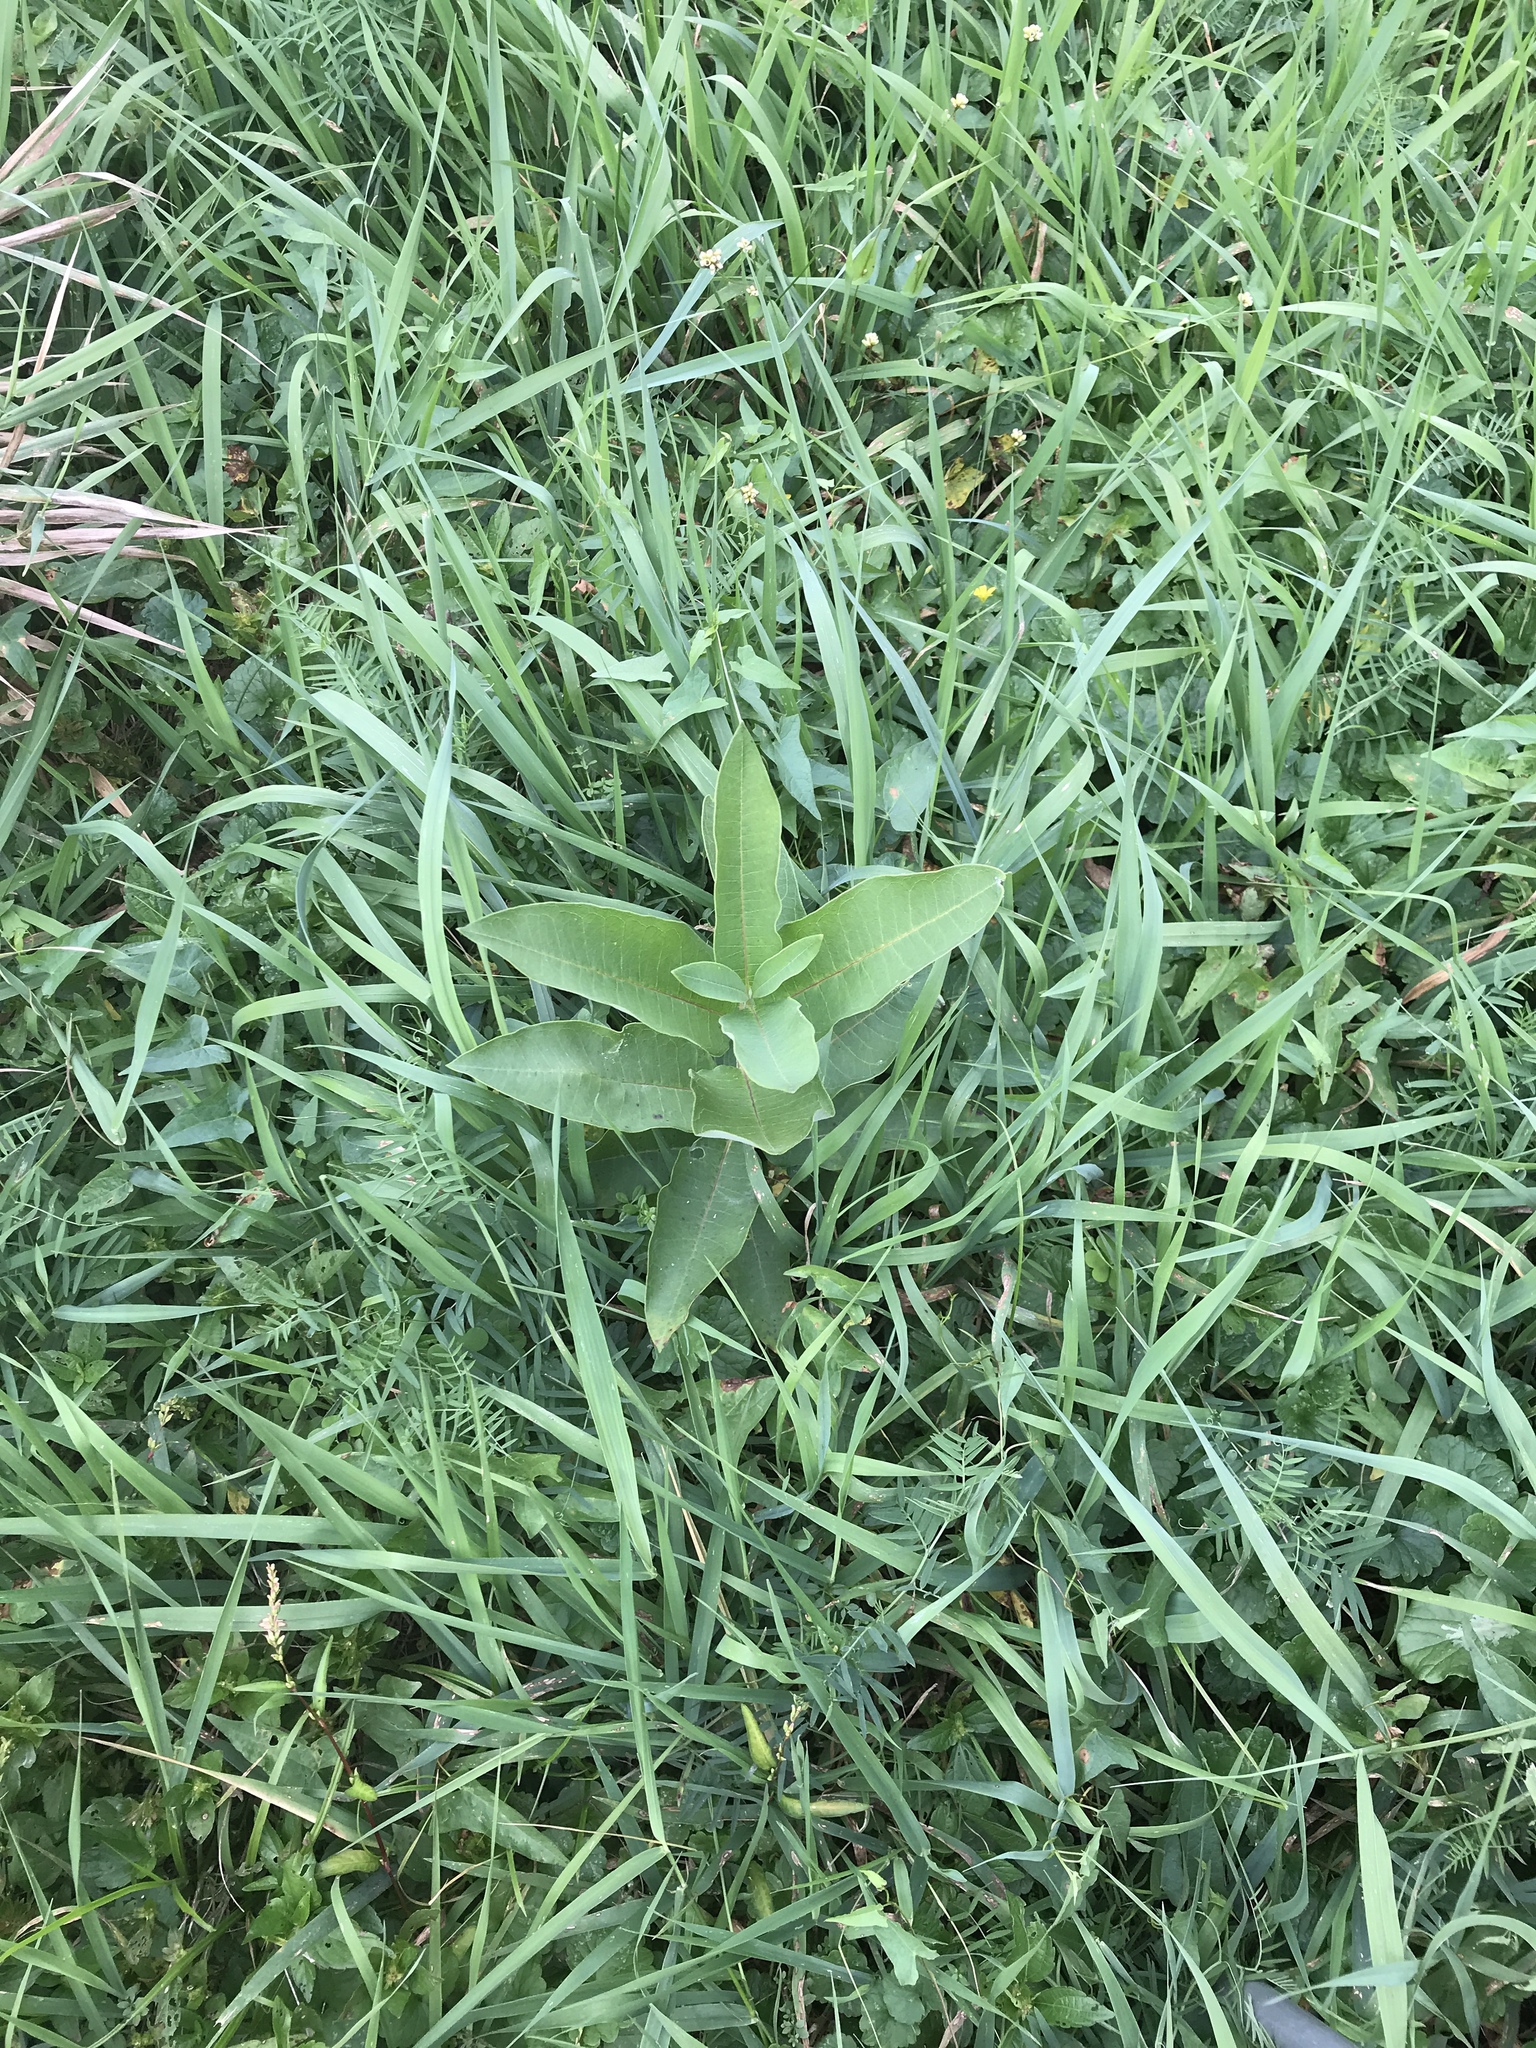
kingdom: Plantae
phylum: Tracheophyta
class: Magnoliopsida
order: Gentianales
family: Apocynaceae
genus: Asclepias
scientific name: Asclepias syriaca
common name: Common milkweed
